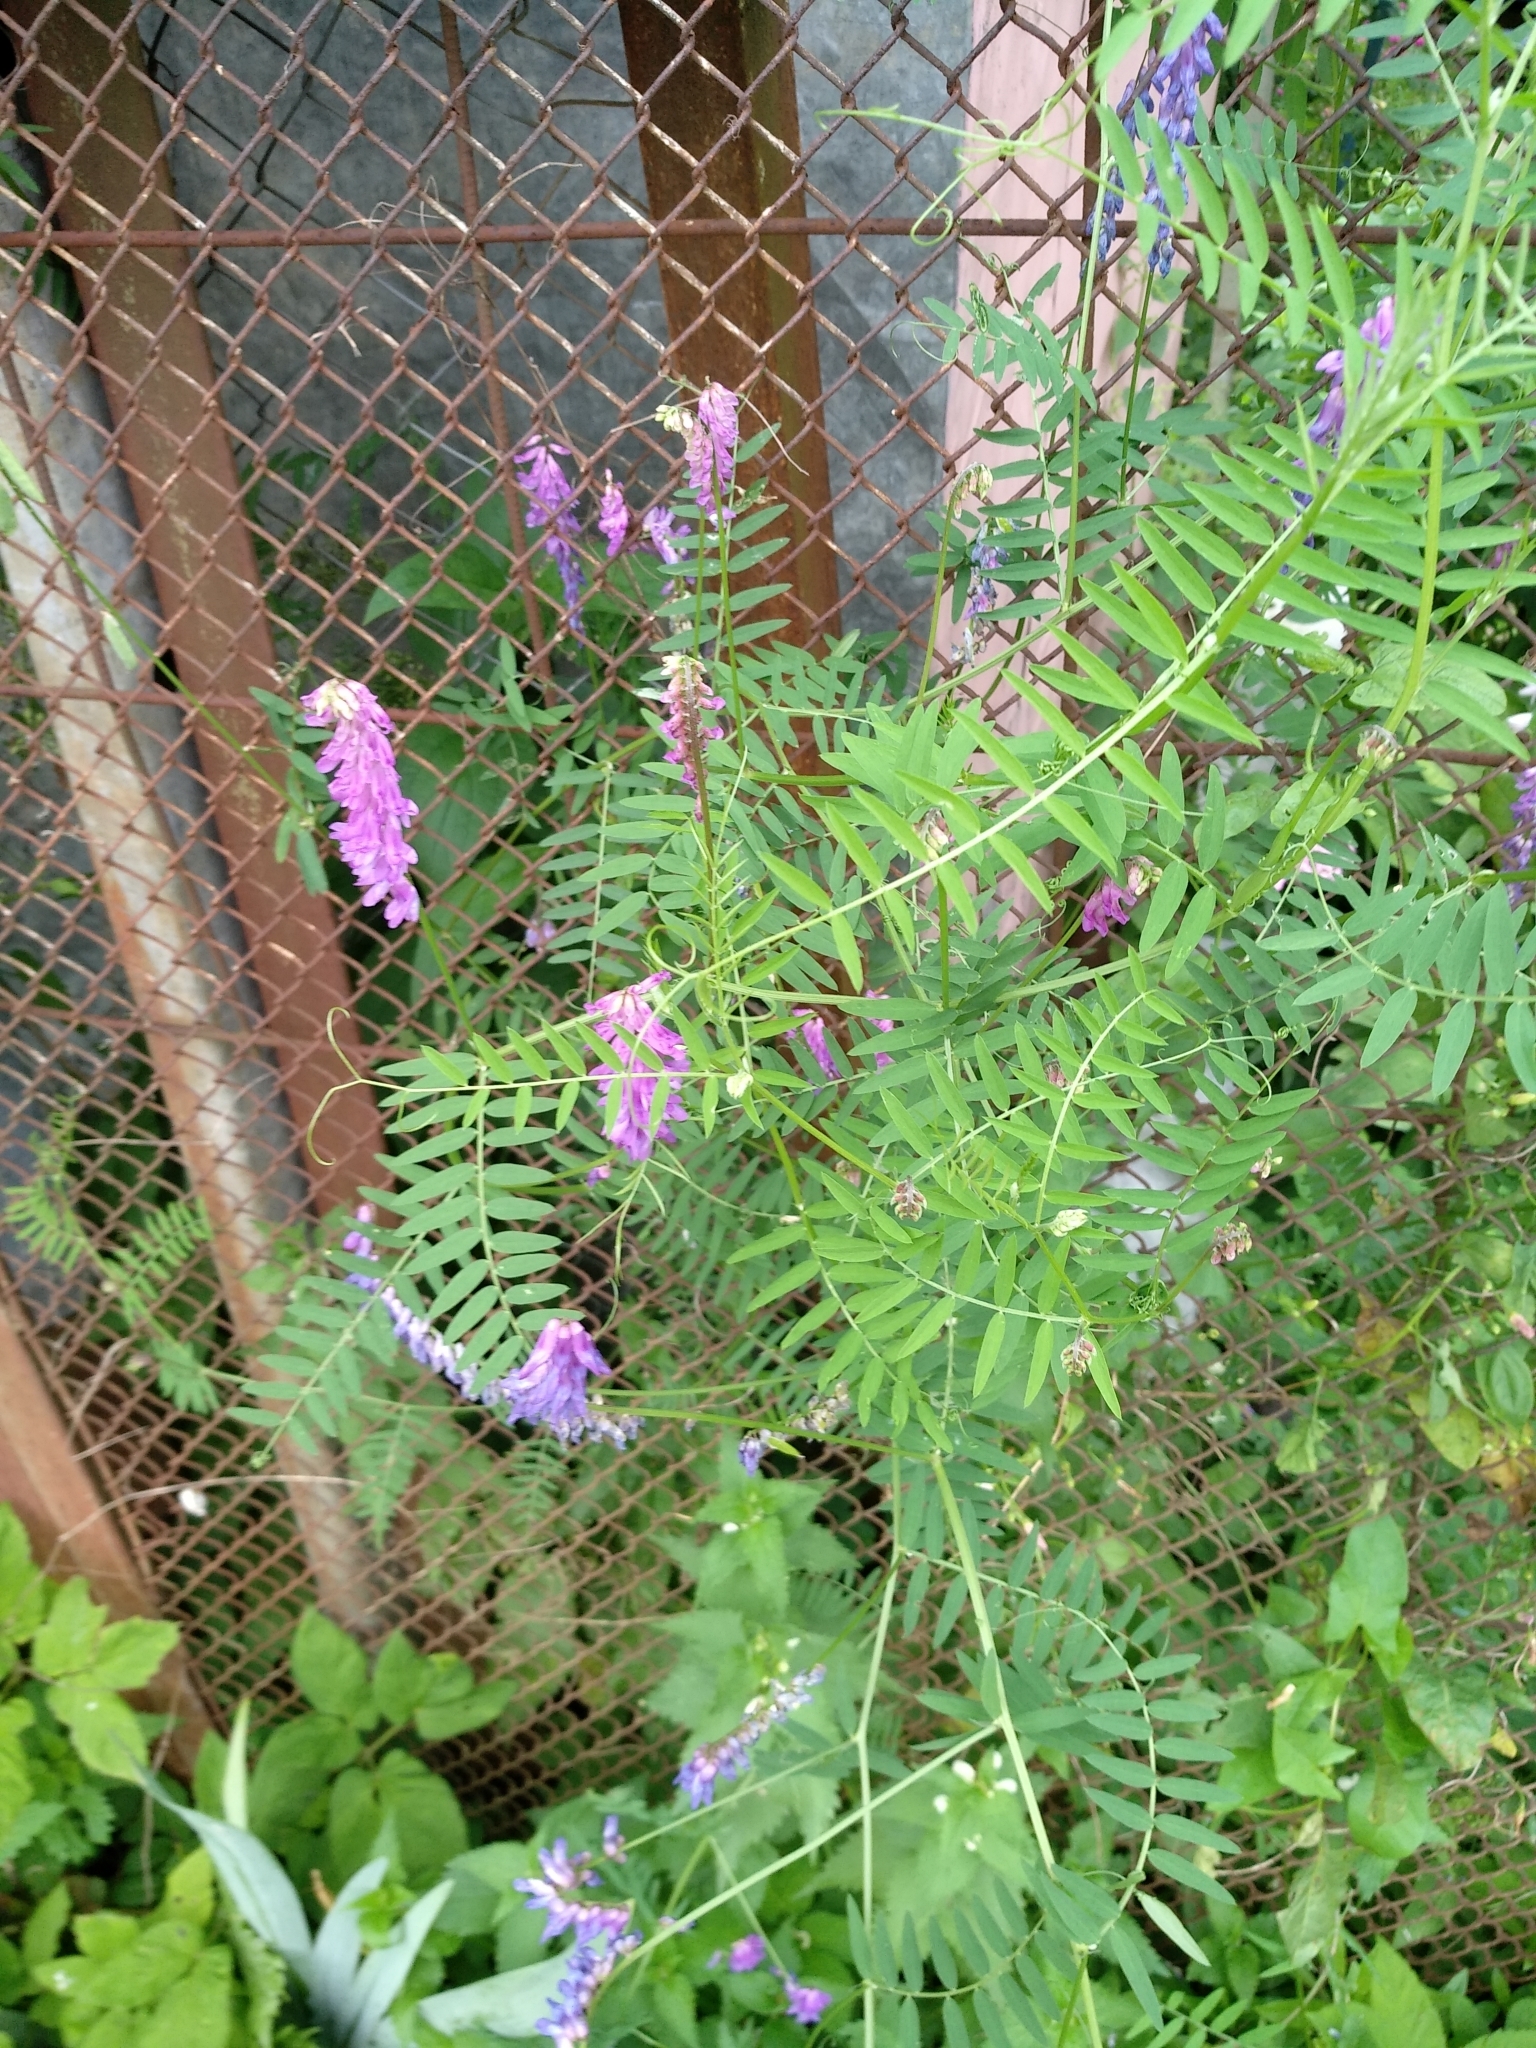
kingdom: Plantae
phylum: Tracheophyta
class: Magnoliopsida
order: Fabales
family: Fabaceae
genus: Vicia
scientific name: Vicia cracca
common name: Bird vetch
